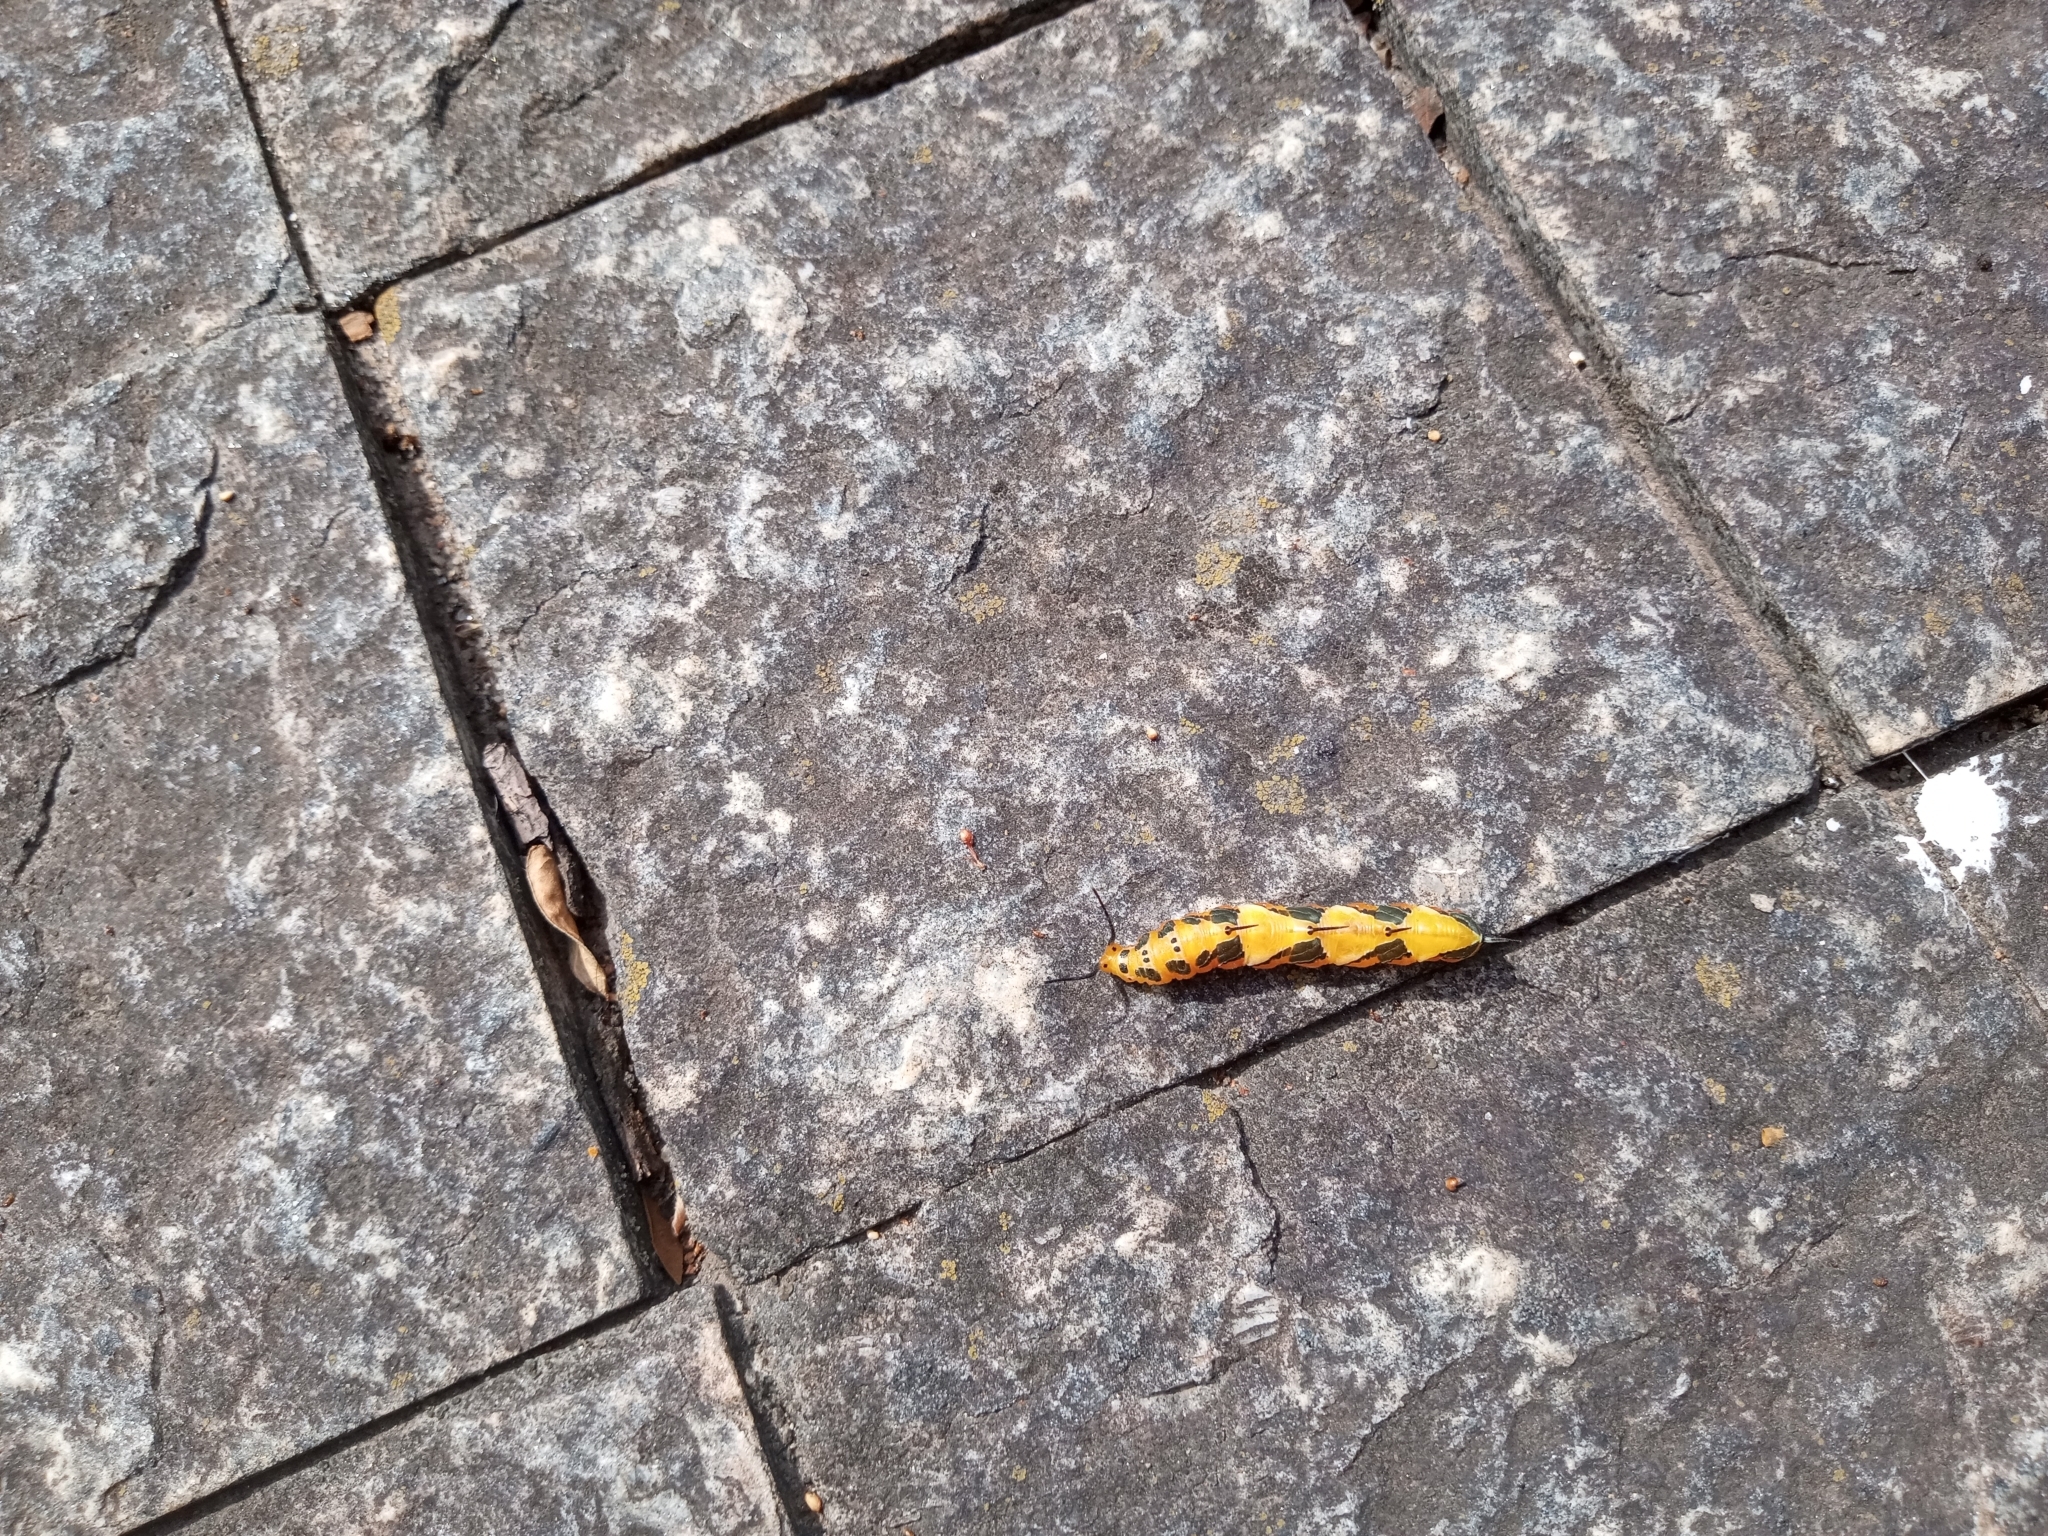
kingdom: Animalia
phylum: Arthropoda
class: Insecta
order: Lepidoptera
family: Nymphalidae
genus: Marpesia
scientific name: Marpesia petreus
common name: Red dagger wing
